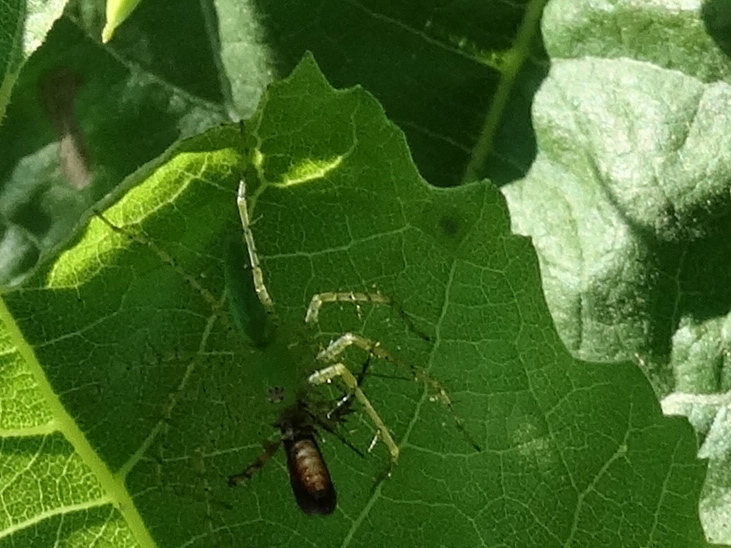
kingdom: Animalia
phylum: Arthropoda
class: Insecta
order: Lepidoptera
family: Heliodinidae
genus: Heliodines
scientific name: Heliodines
